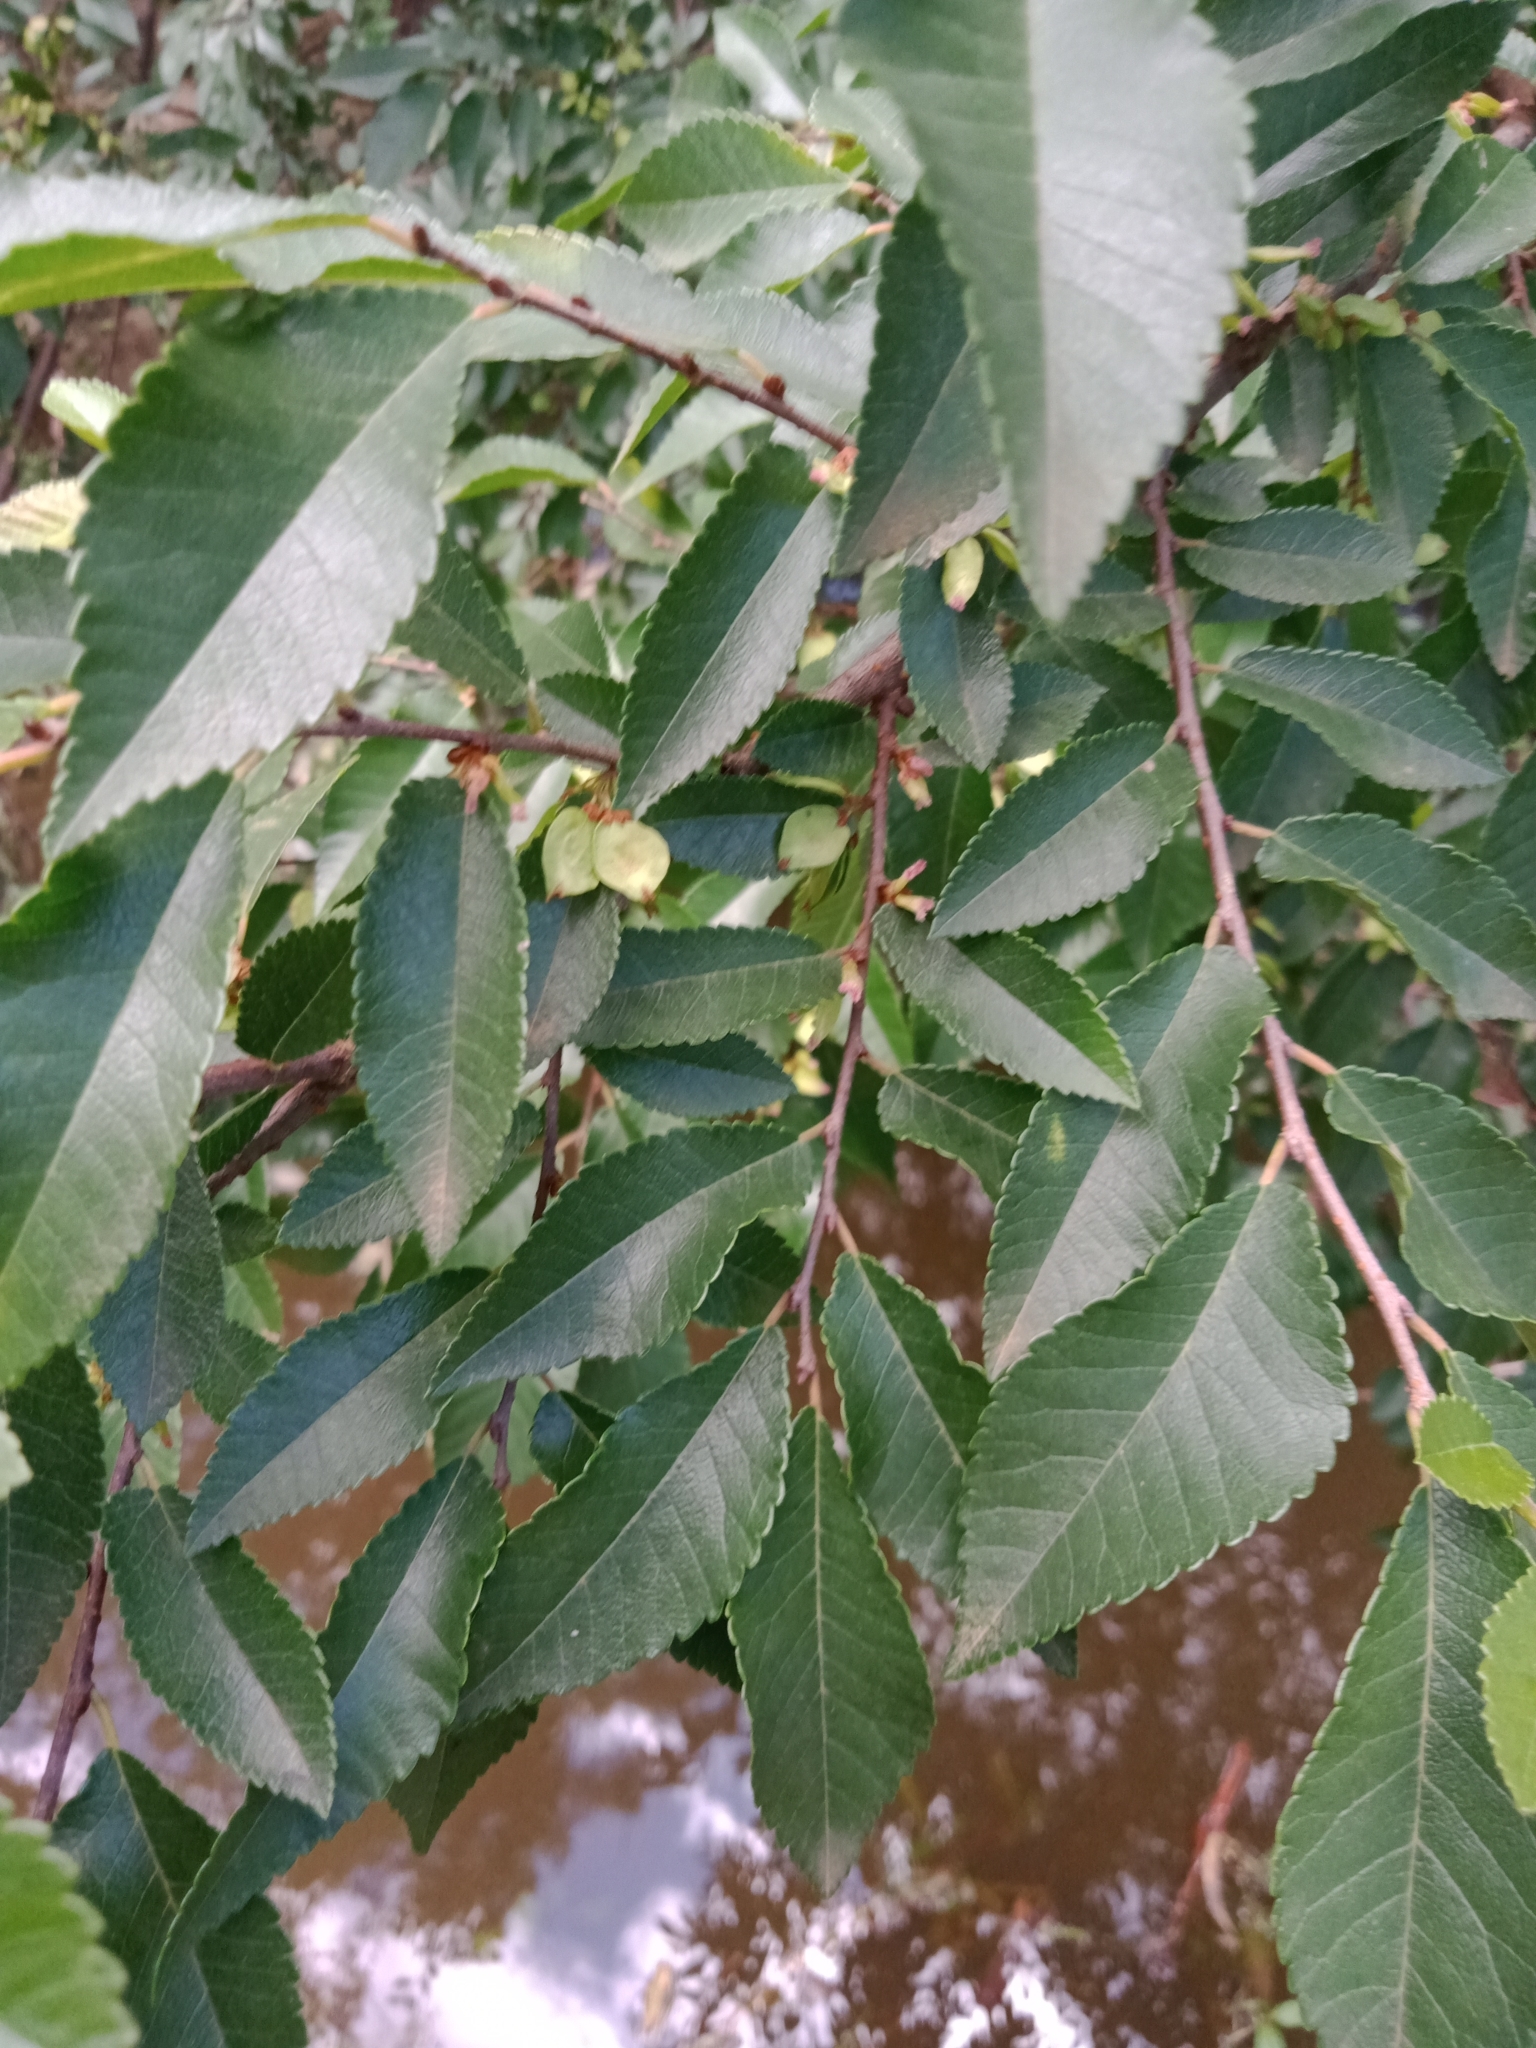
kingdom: Plantae
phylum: Tracheophyta
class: Magnoliopsida
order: Rosales
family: Ulmaceae
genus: Ulmus
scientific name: Ulmus parvifolia
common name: Chinese elm
